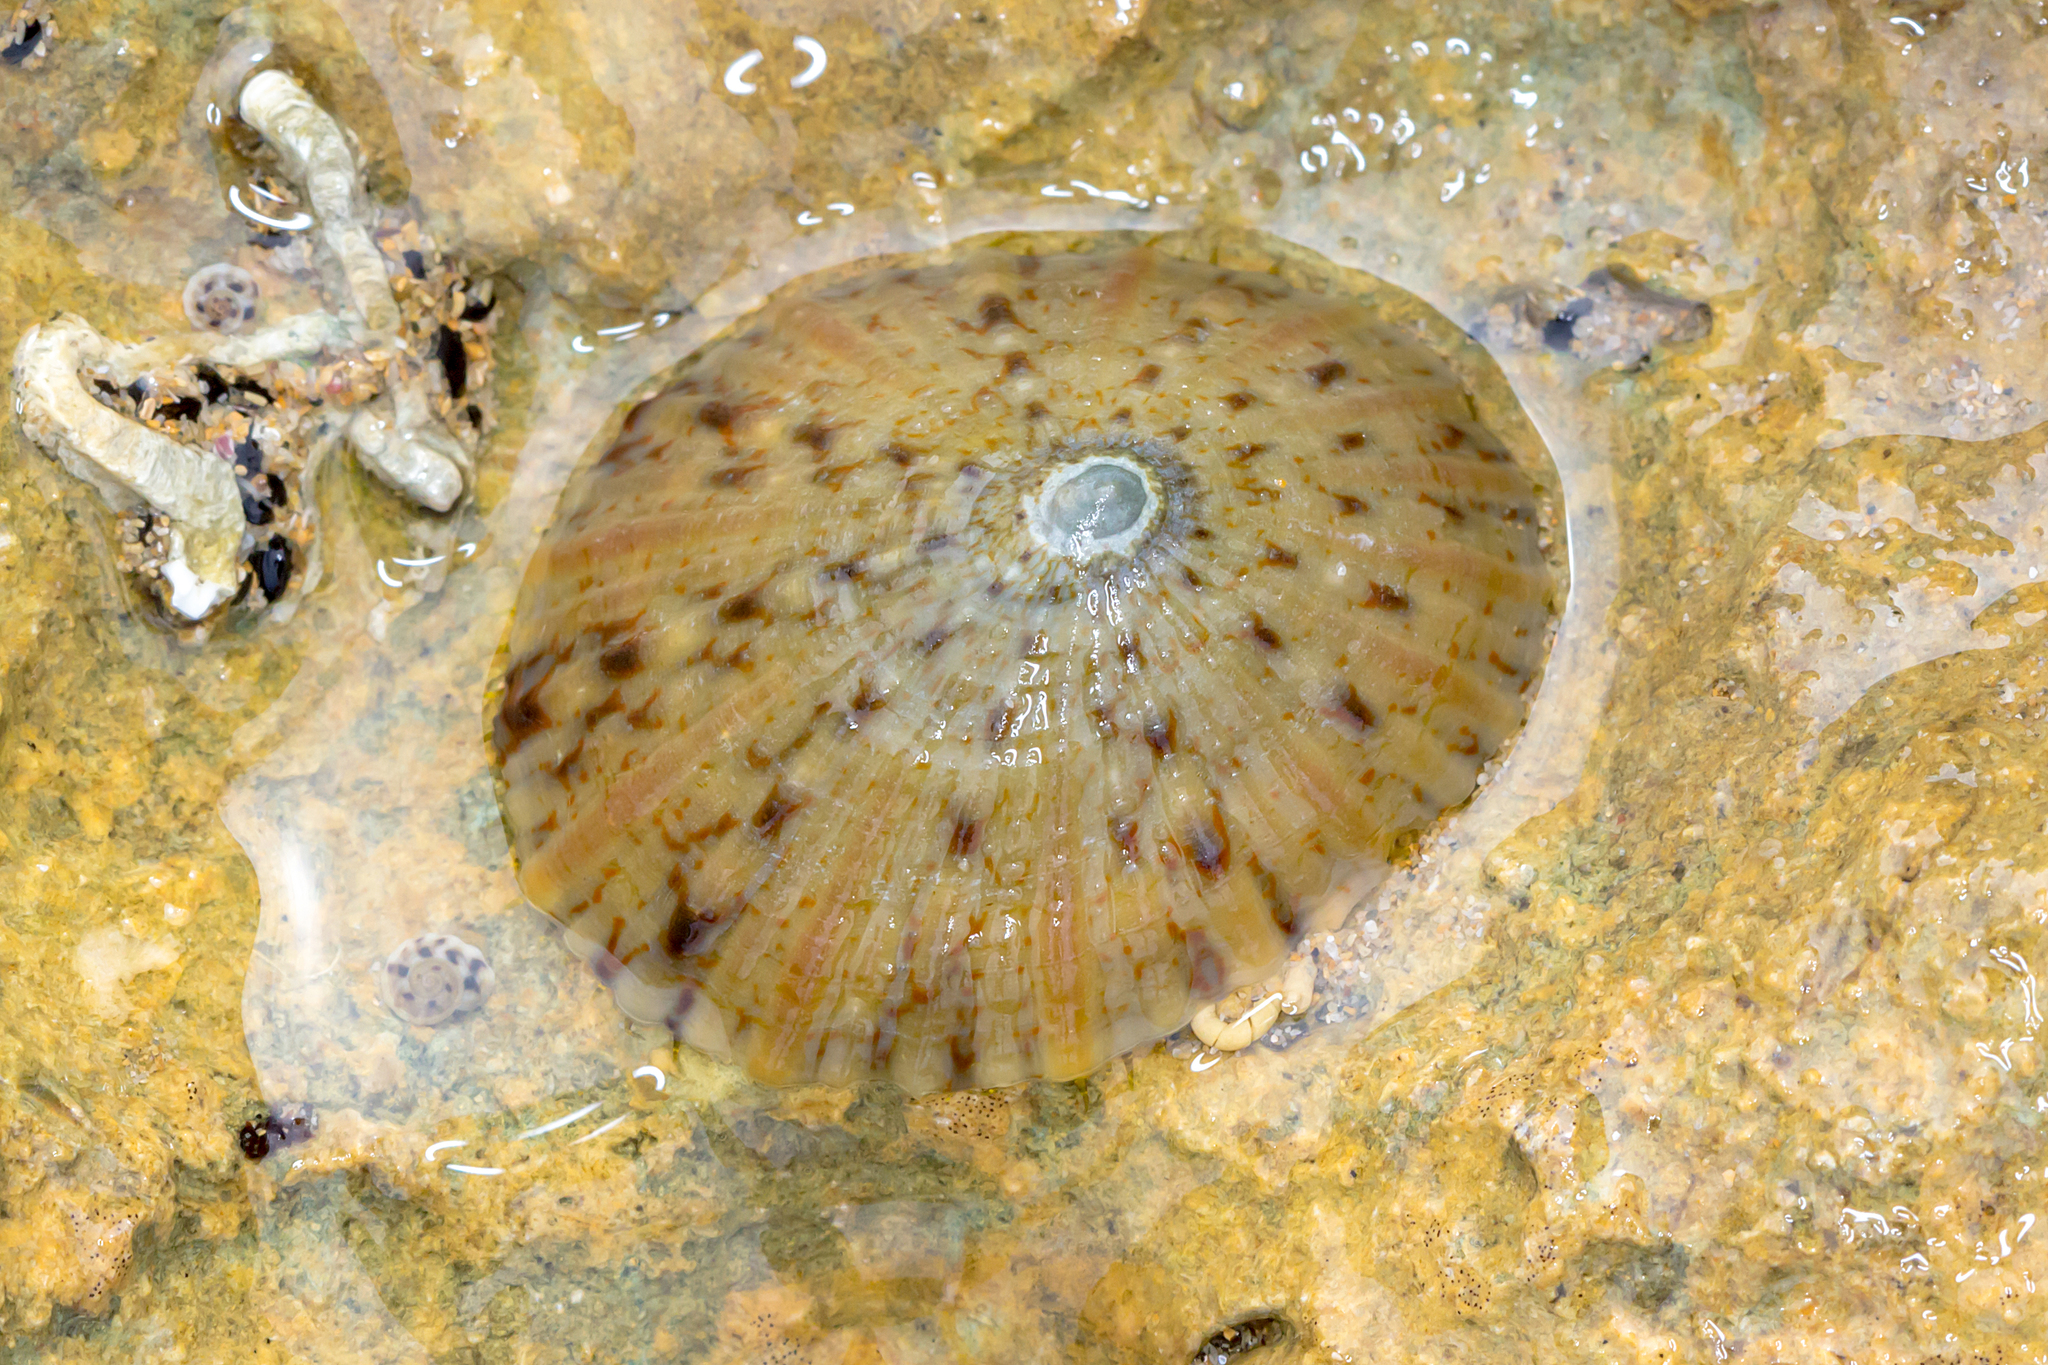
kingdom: Animalia
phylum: Mollusca
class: Gastropoda
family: Nacellidae
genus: Cellana
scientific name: Cellana tramoserica
